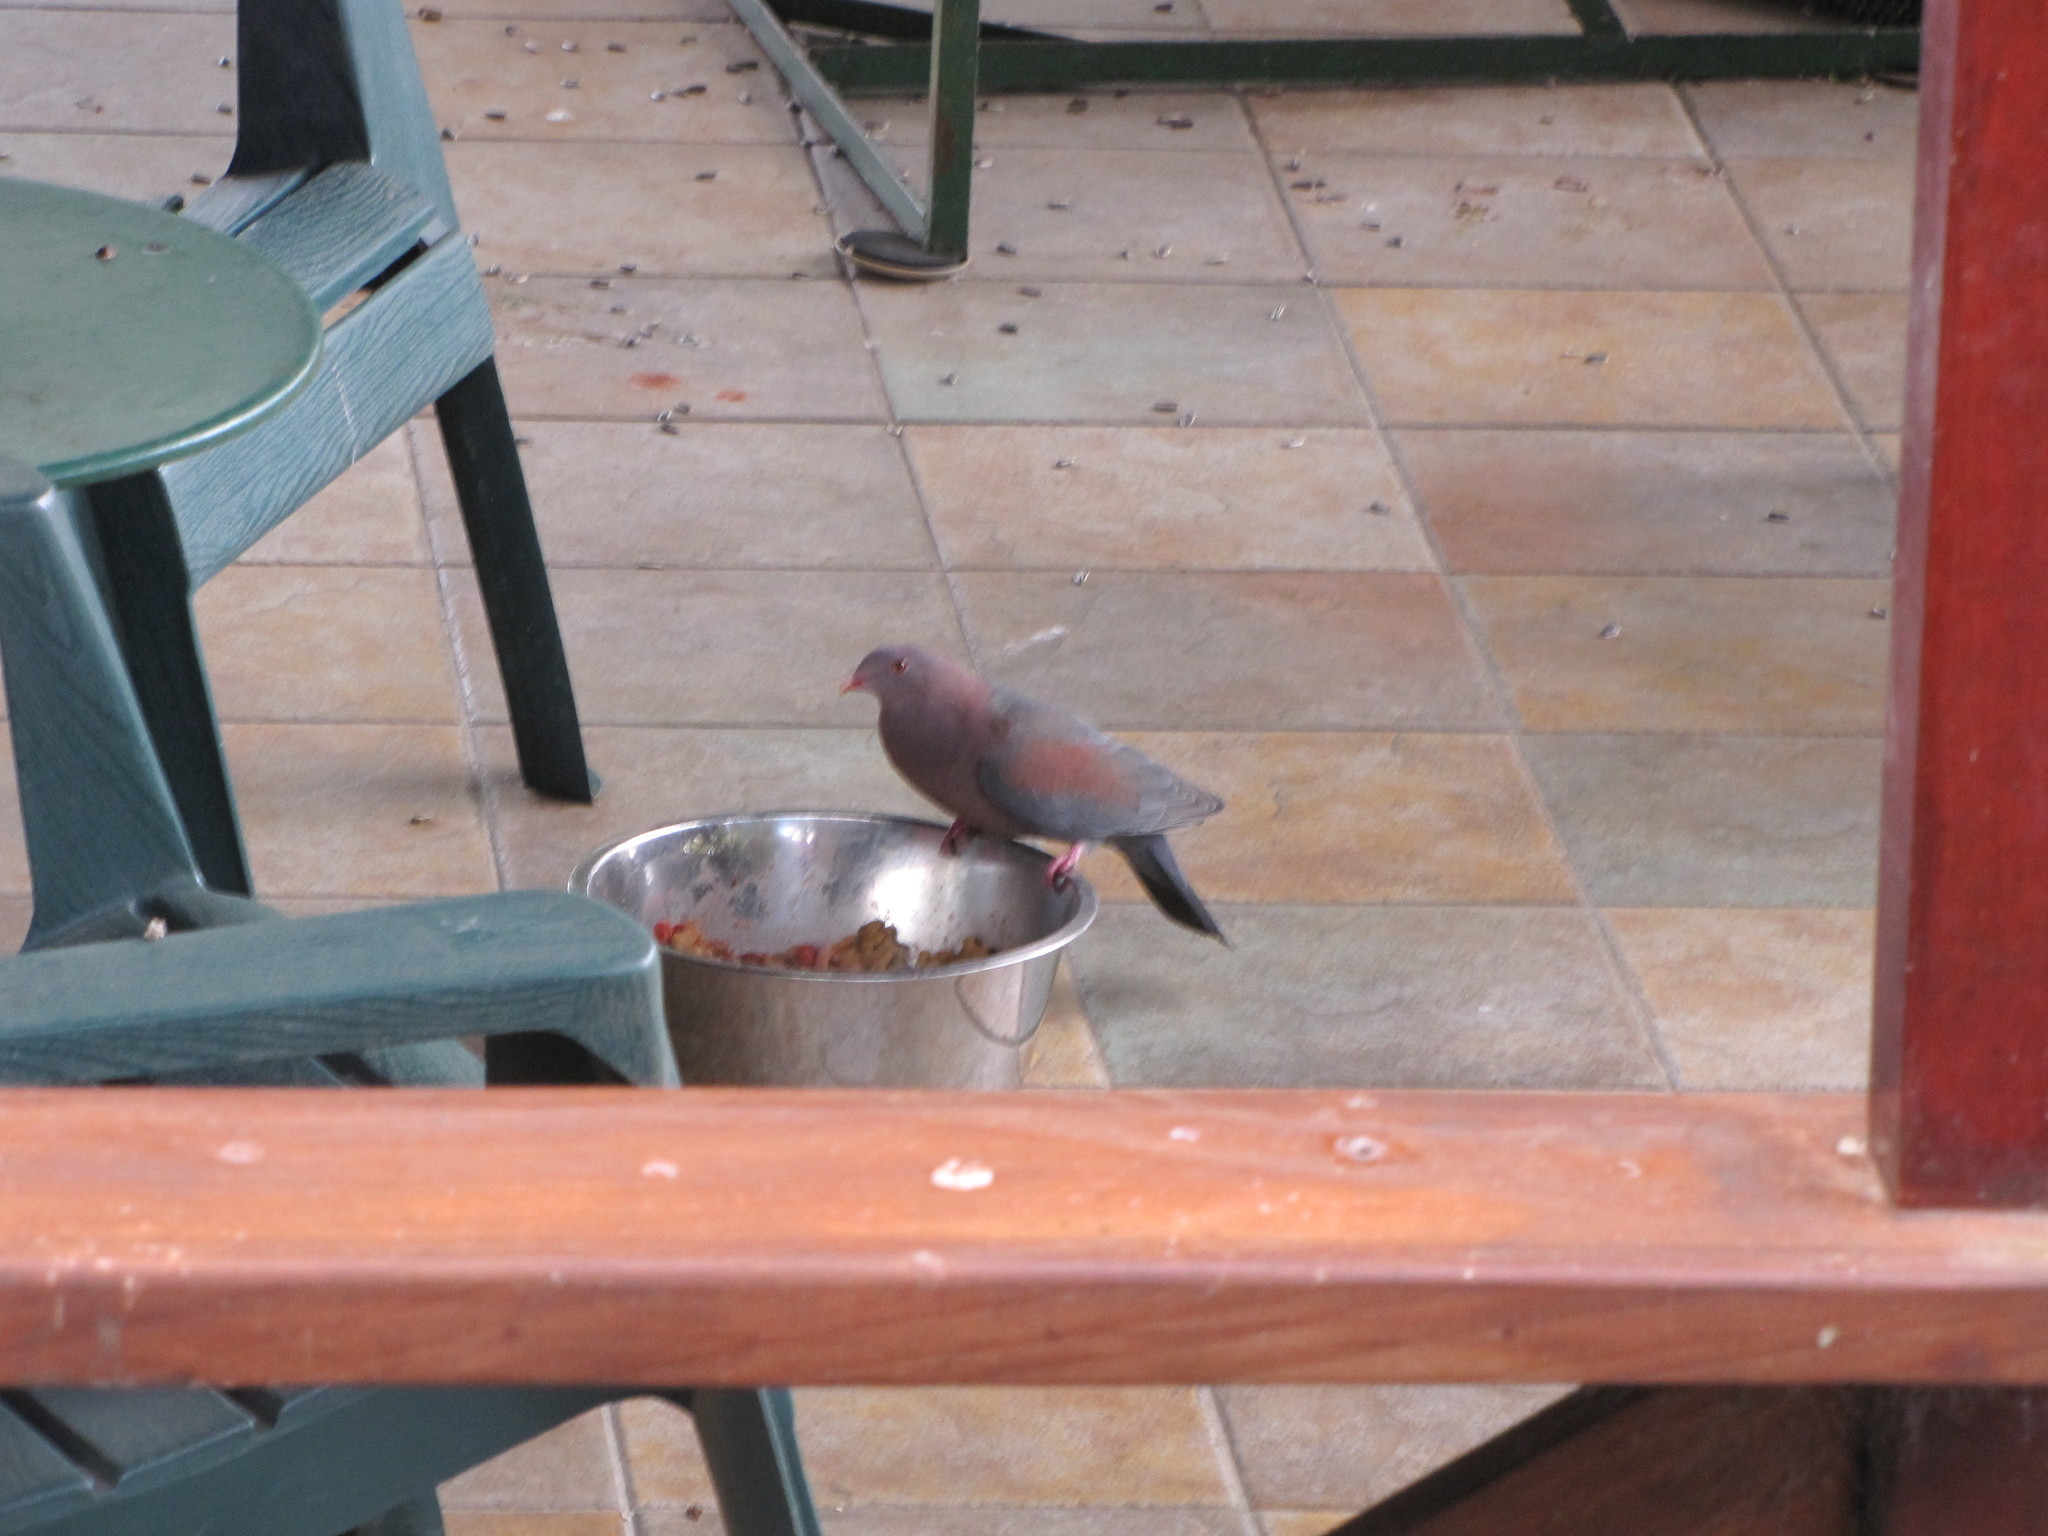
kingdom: Animalia
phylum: Chordata
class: Aves
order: Columbiformes
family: Columbidae
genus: Patagioenas
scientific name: Patagioenas flavirostris
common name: Red-billed pigeon
